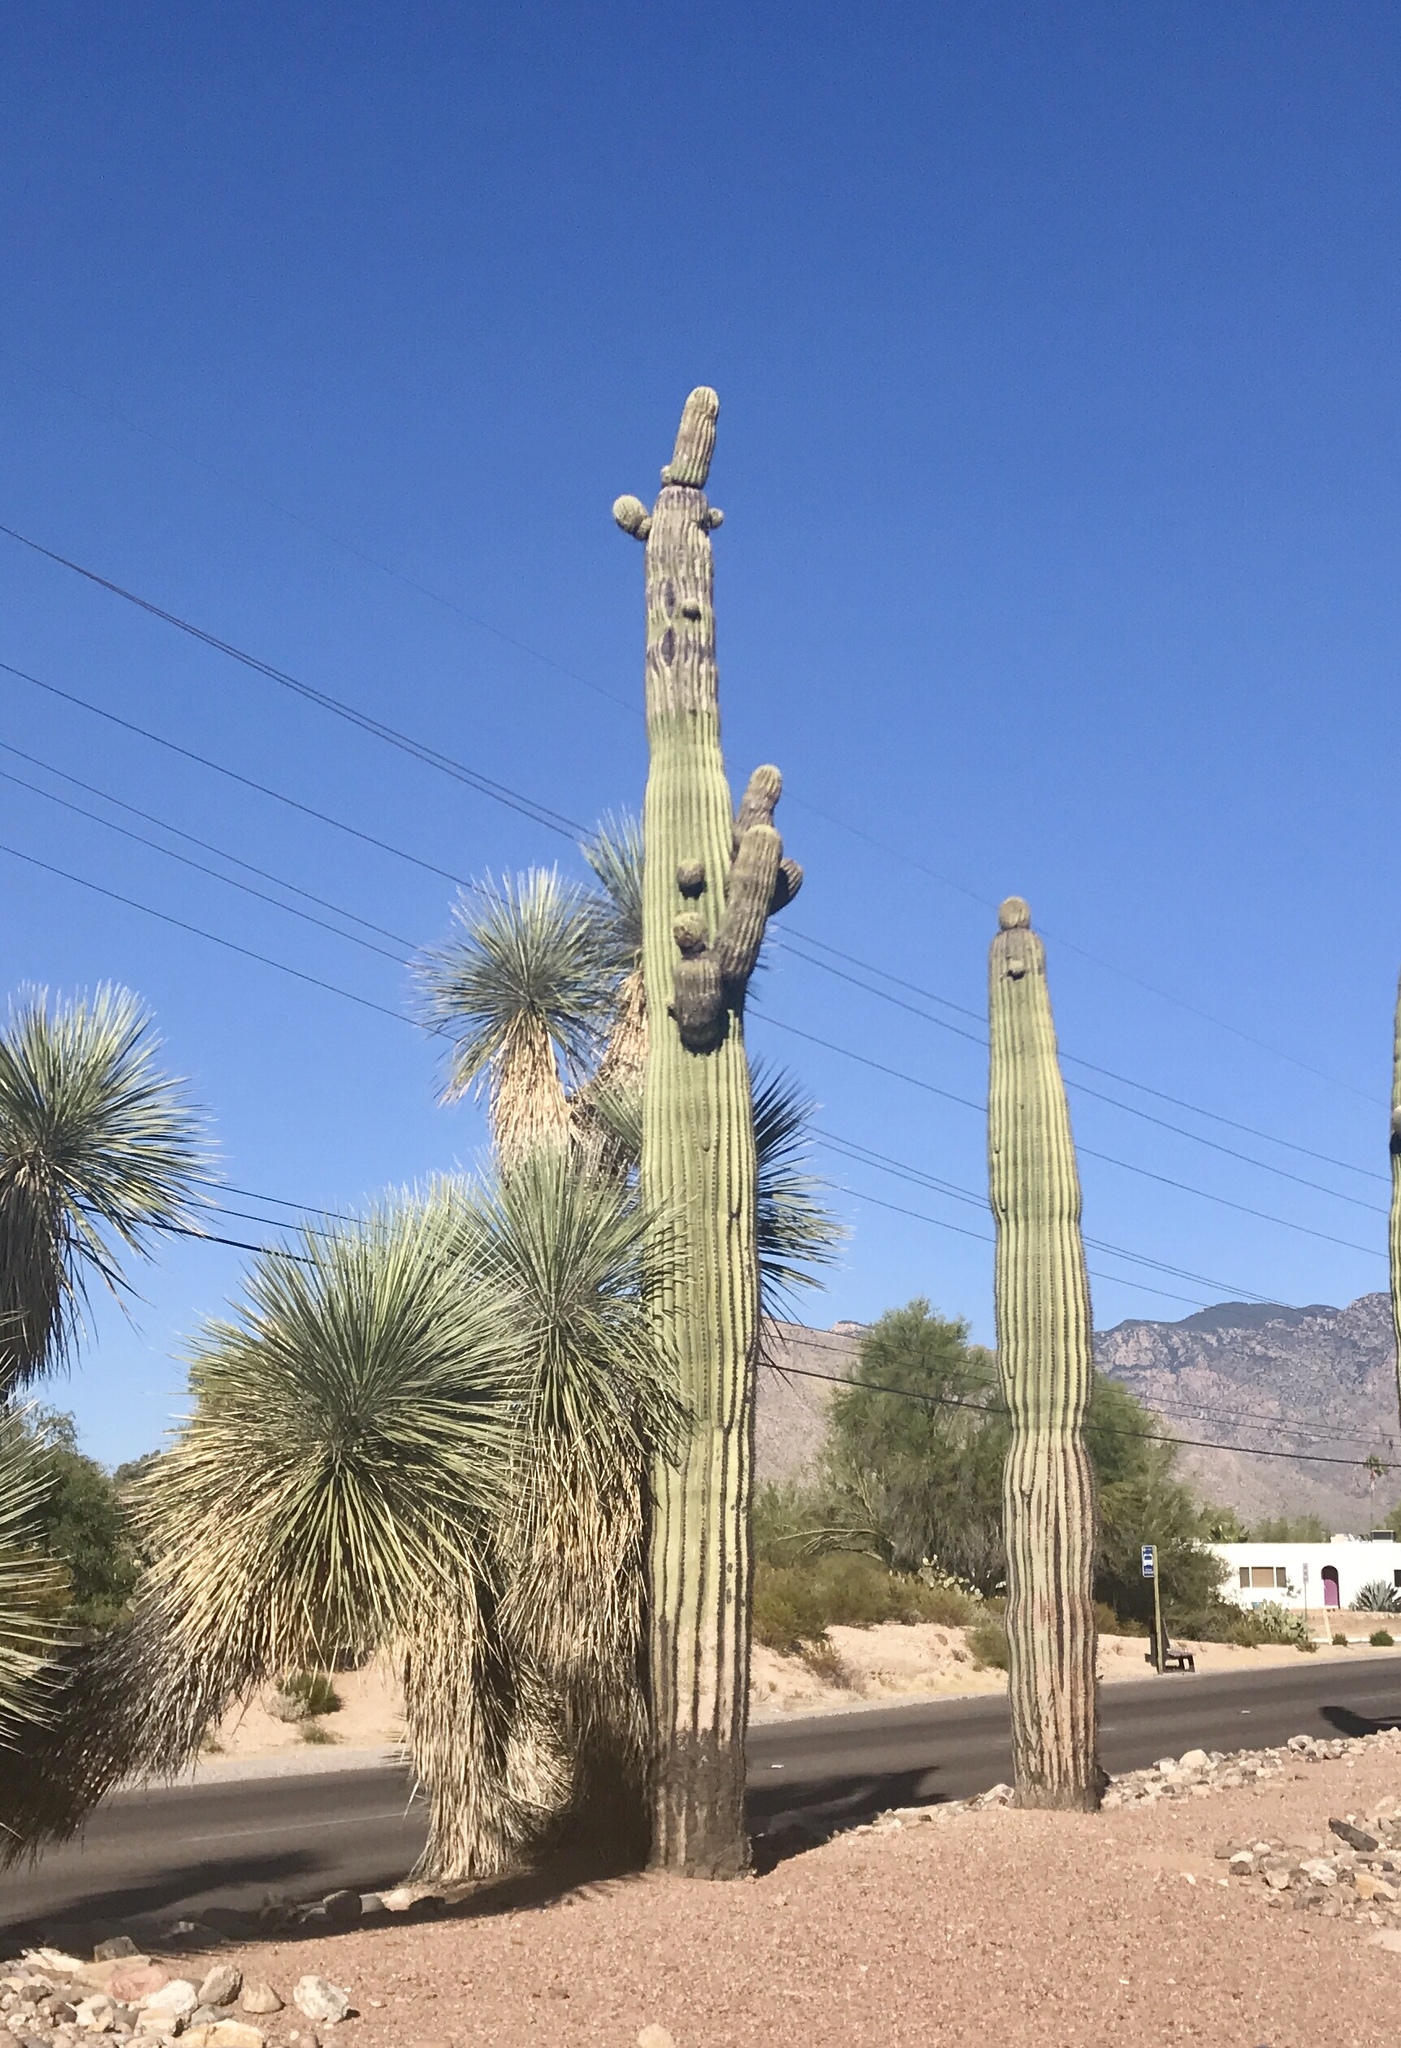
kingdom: Plantae
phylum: Tracheophyta
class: Magnoliopsida
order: Caryophyllales
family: Cactaceae
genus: Carnegiea
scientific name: Carnegiea gigantea
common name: Saguaro
